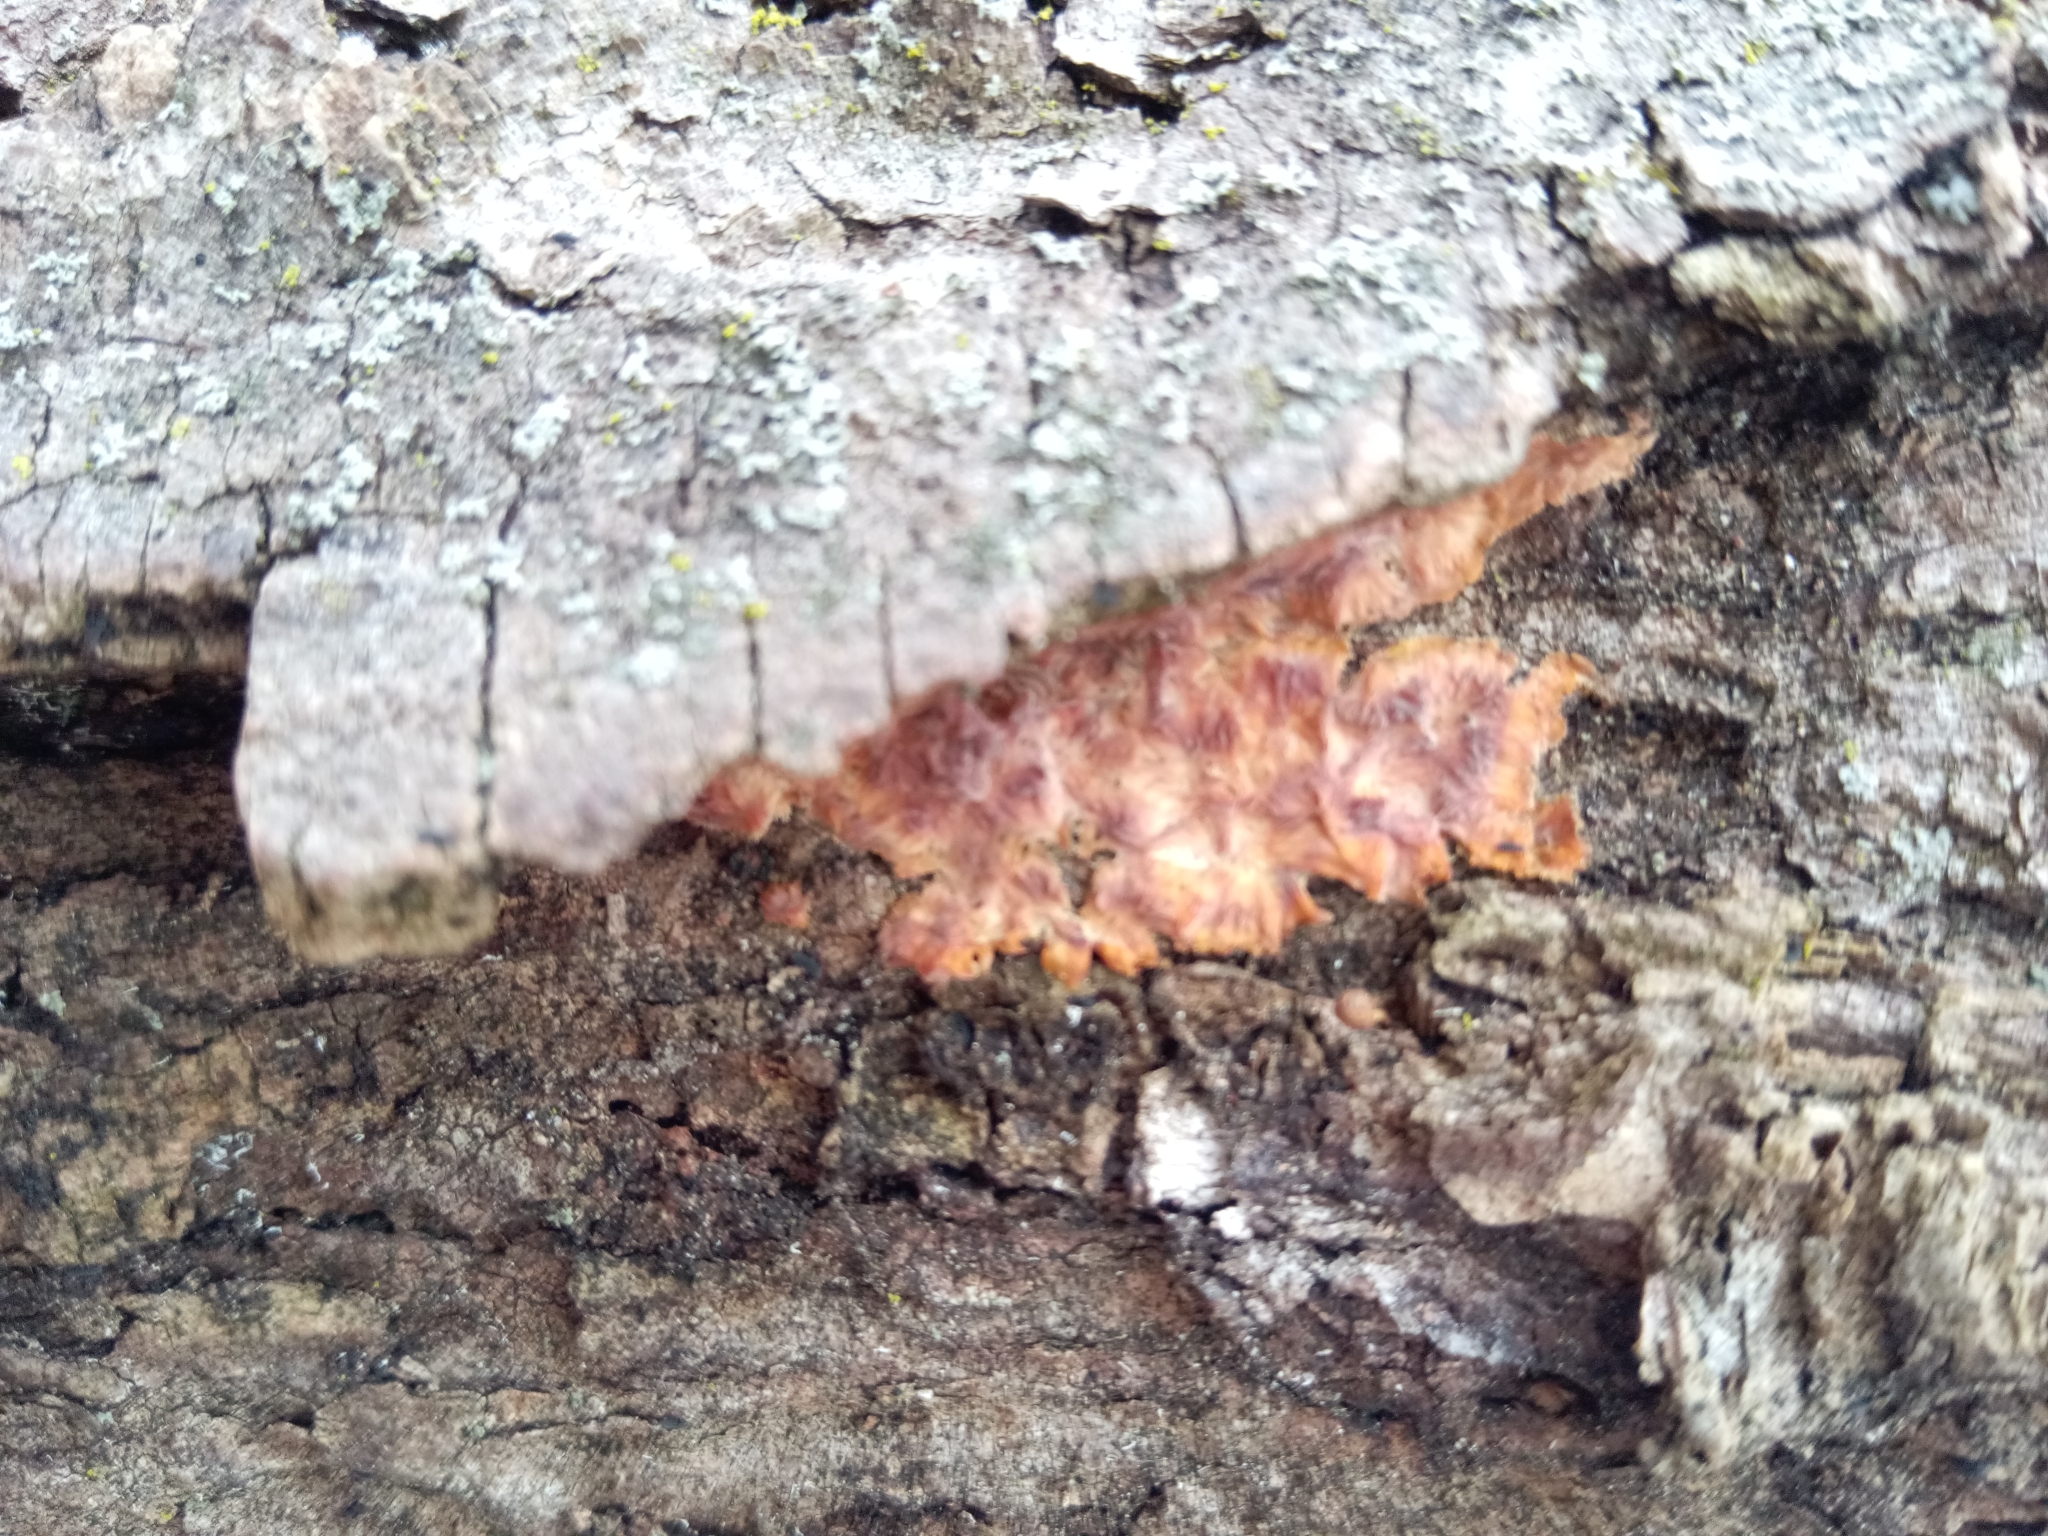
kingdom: Fungi
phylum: Basidiomycota
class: Agaricomycetes
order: Polyporales
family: Meruliaceae
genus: Phlebia
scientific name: Phlebia radiata
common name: Wrinkled crust
